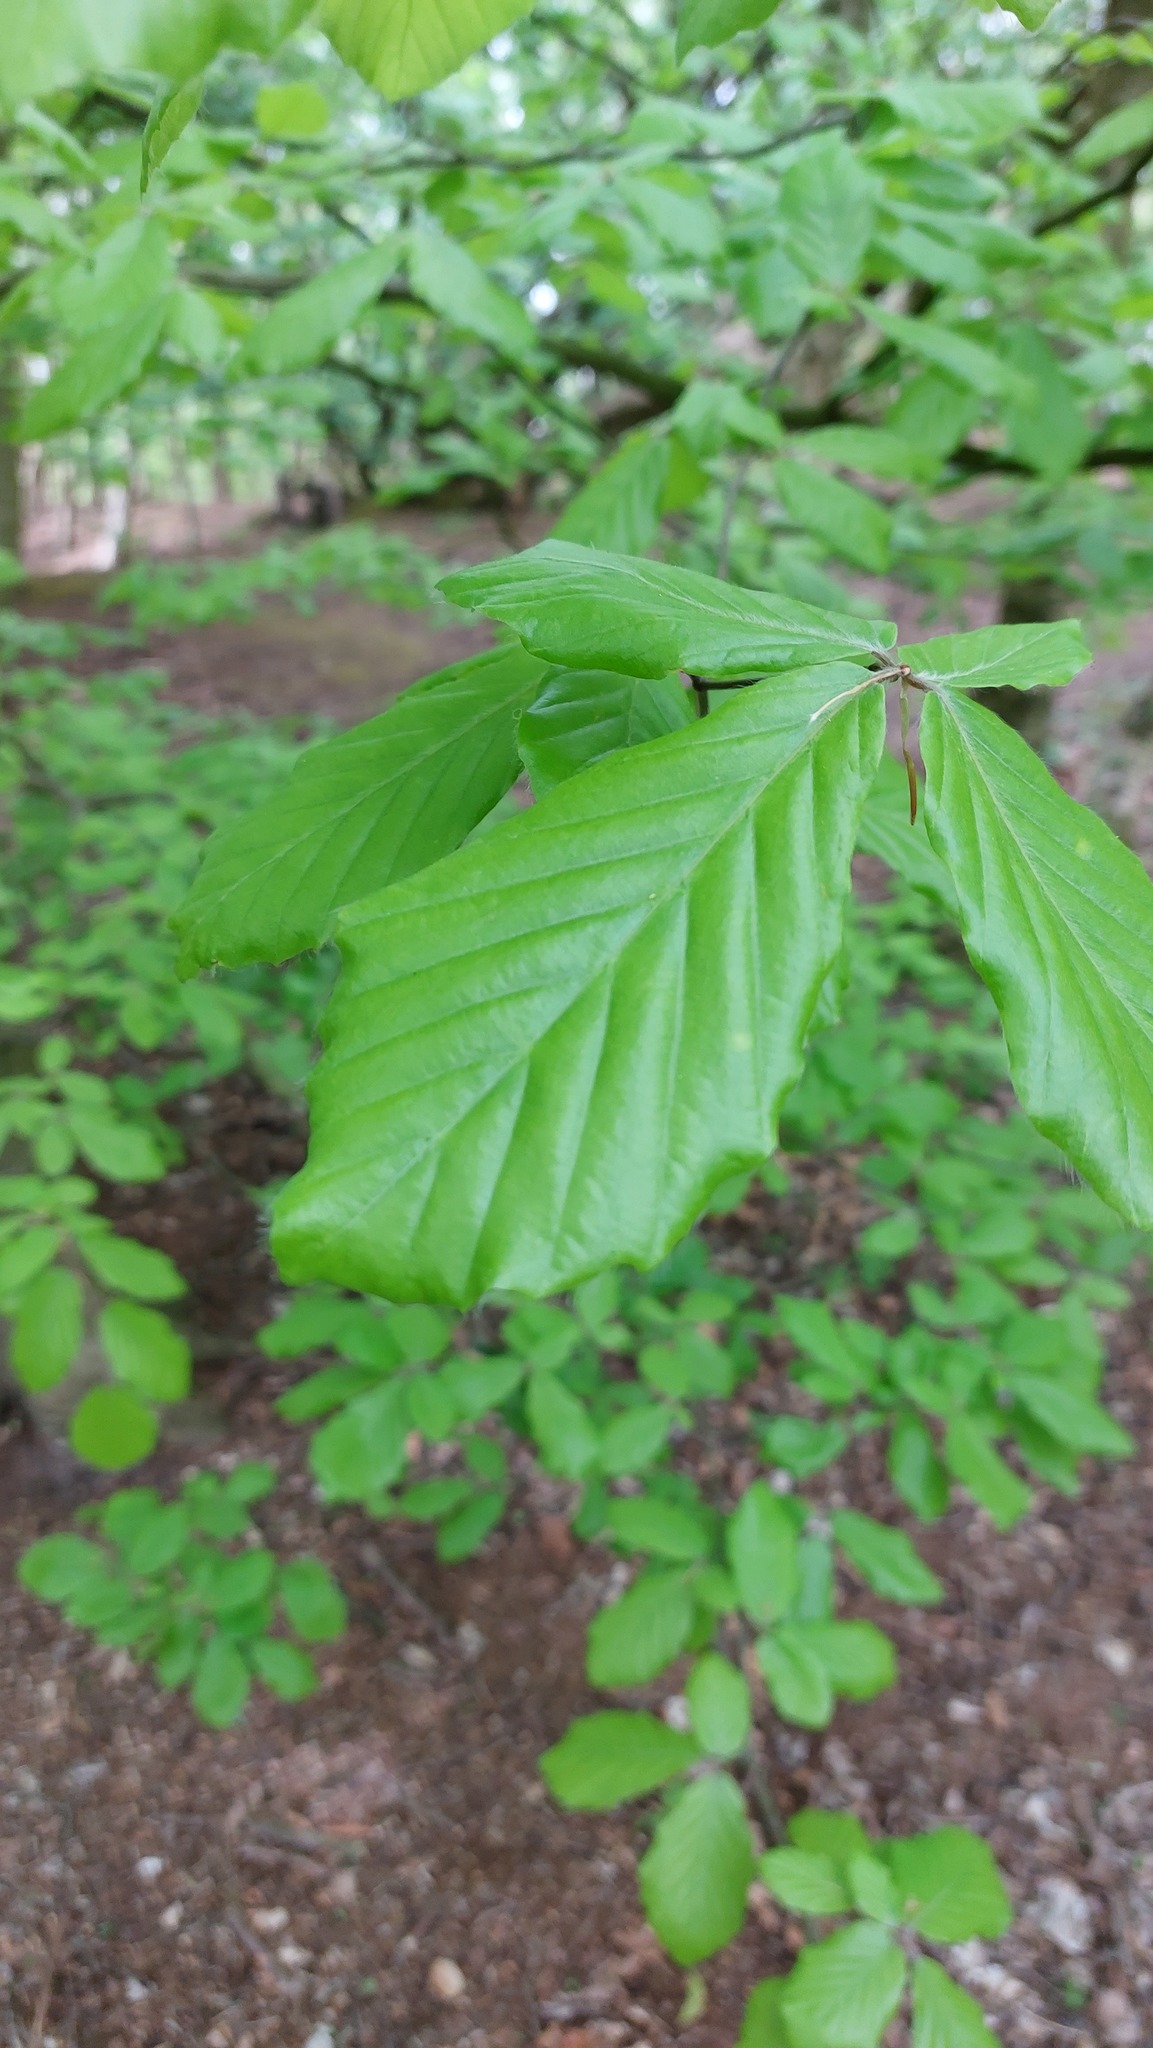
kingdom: Plantae
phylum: Tracheophyta
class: Magnoliopsida
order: Fagales
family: Fagaceae
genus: Fagus
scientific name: Fagus sylvatica
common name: Beech
